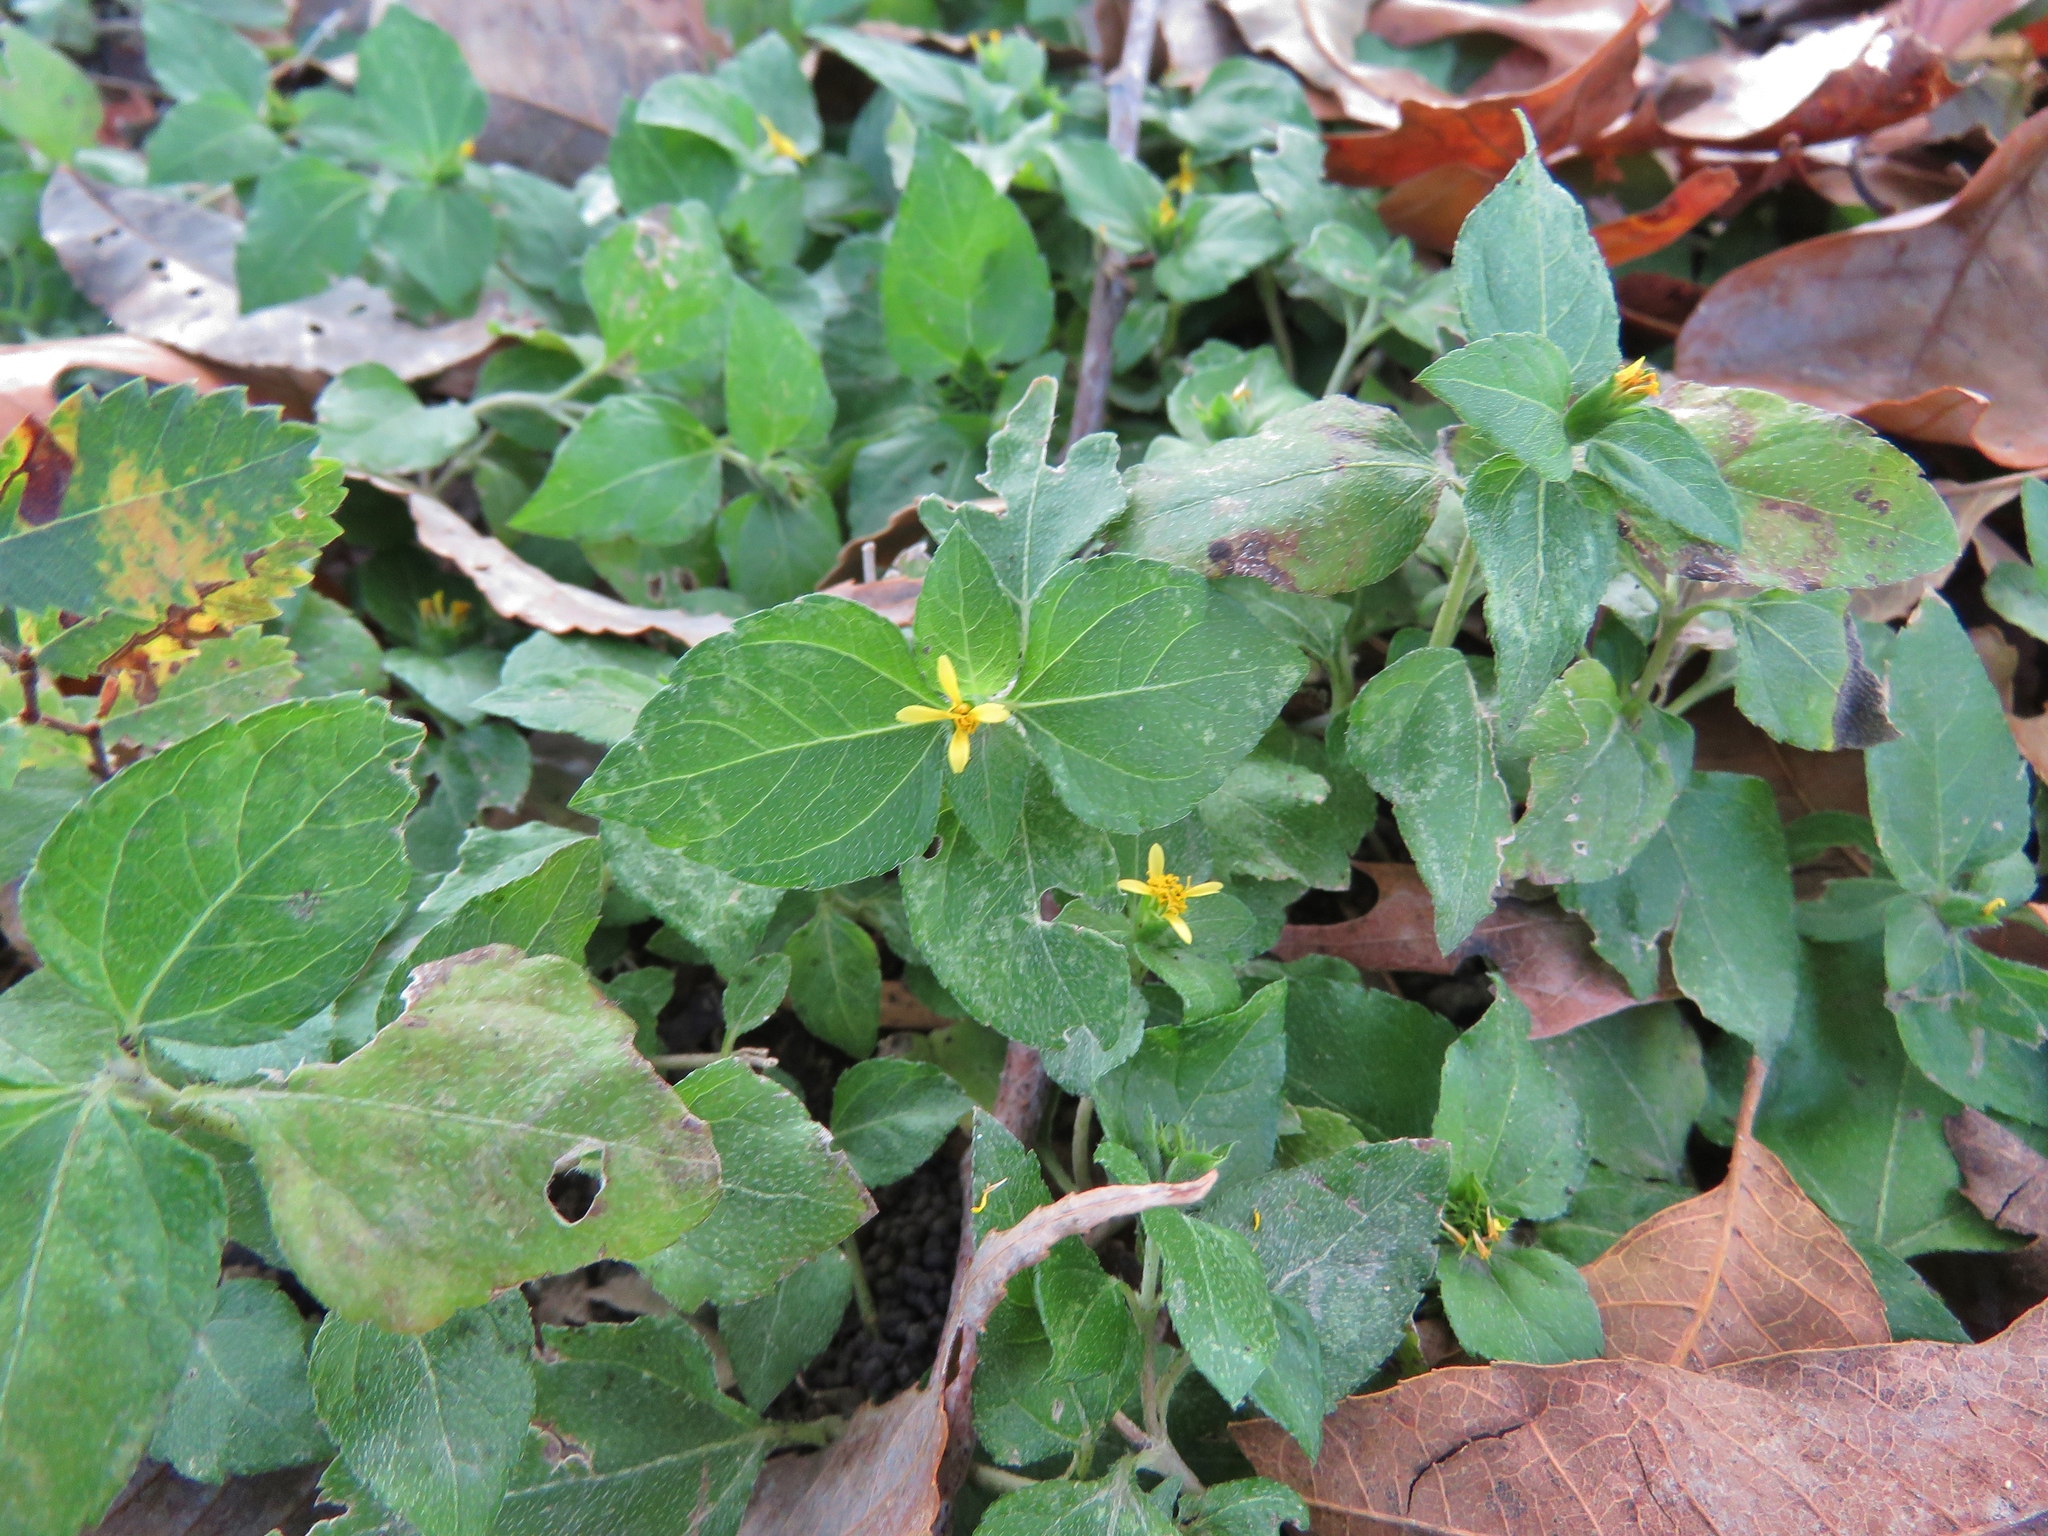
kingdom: Plantae
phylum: Tracheophyta
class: Magnoliopsida
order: Asterales
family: Asteraceae
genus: Calyptocarpus
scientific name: Calyptocarpus vialis
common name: Straggler daisy
